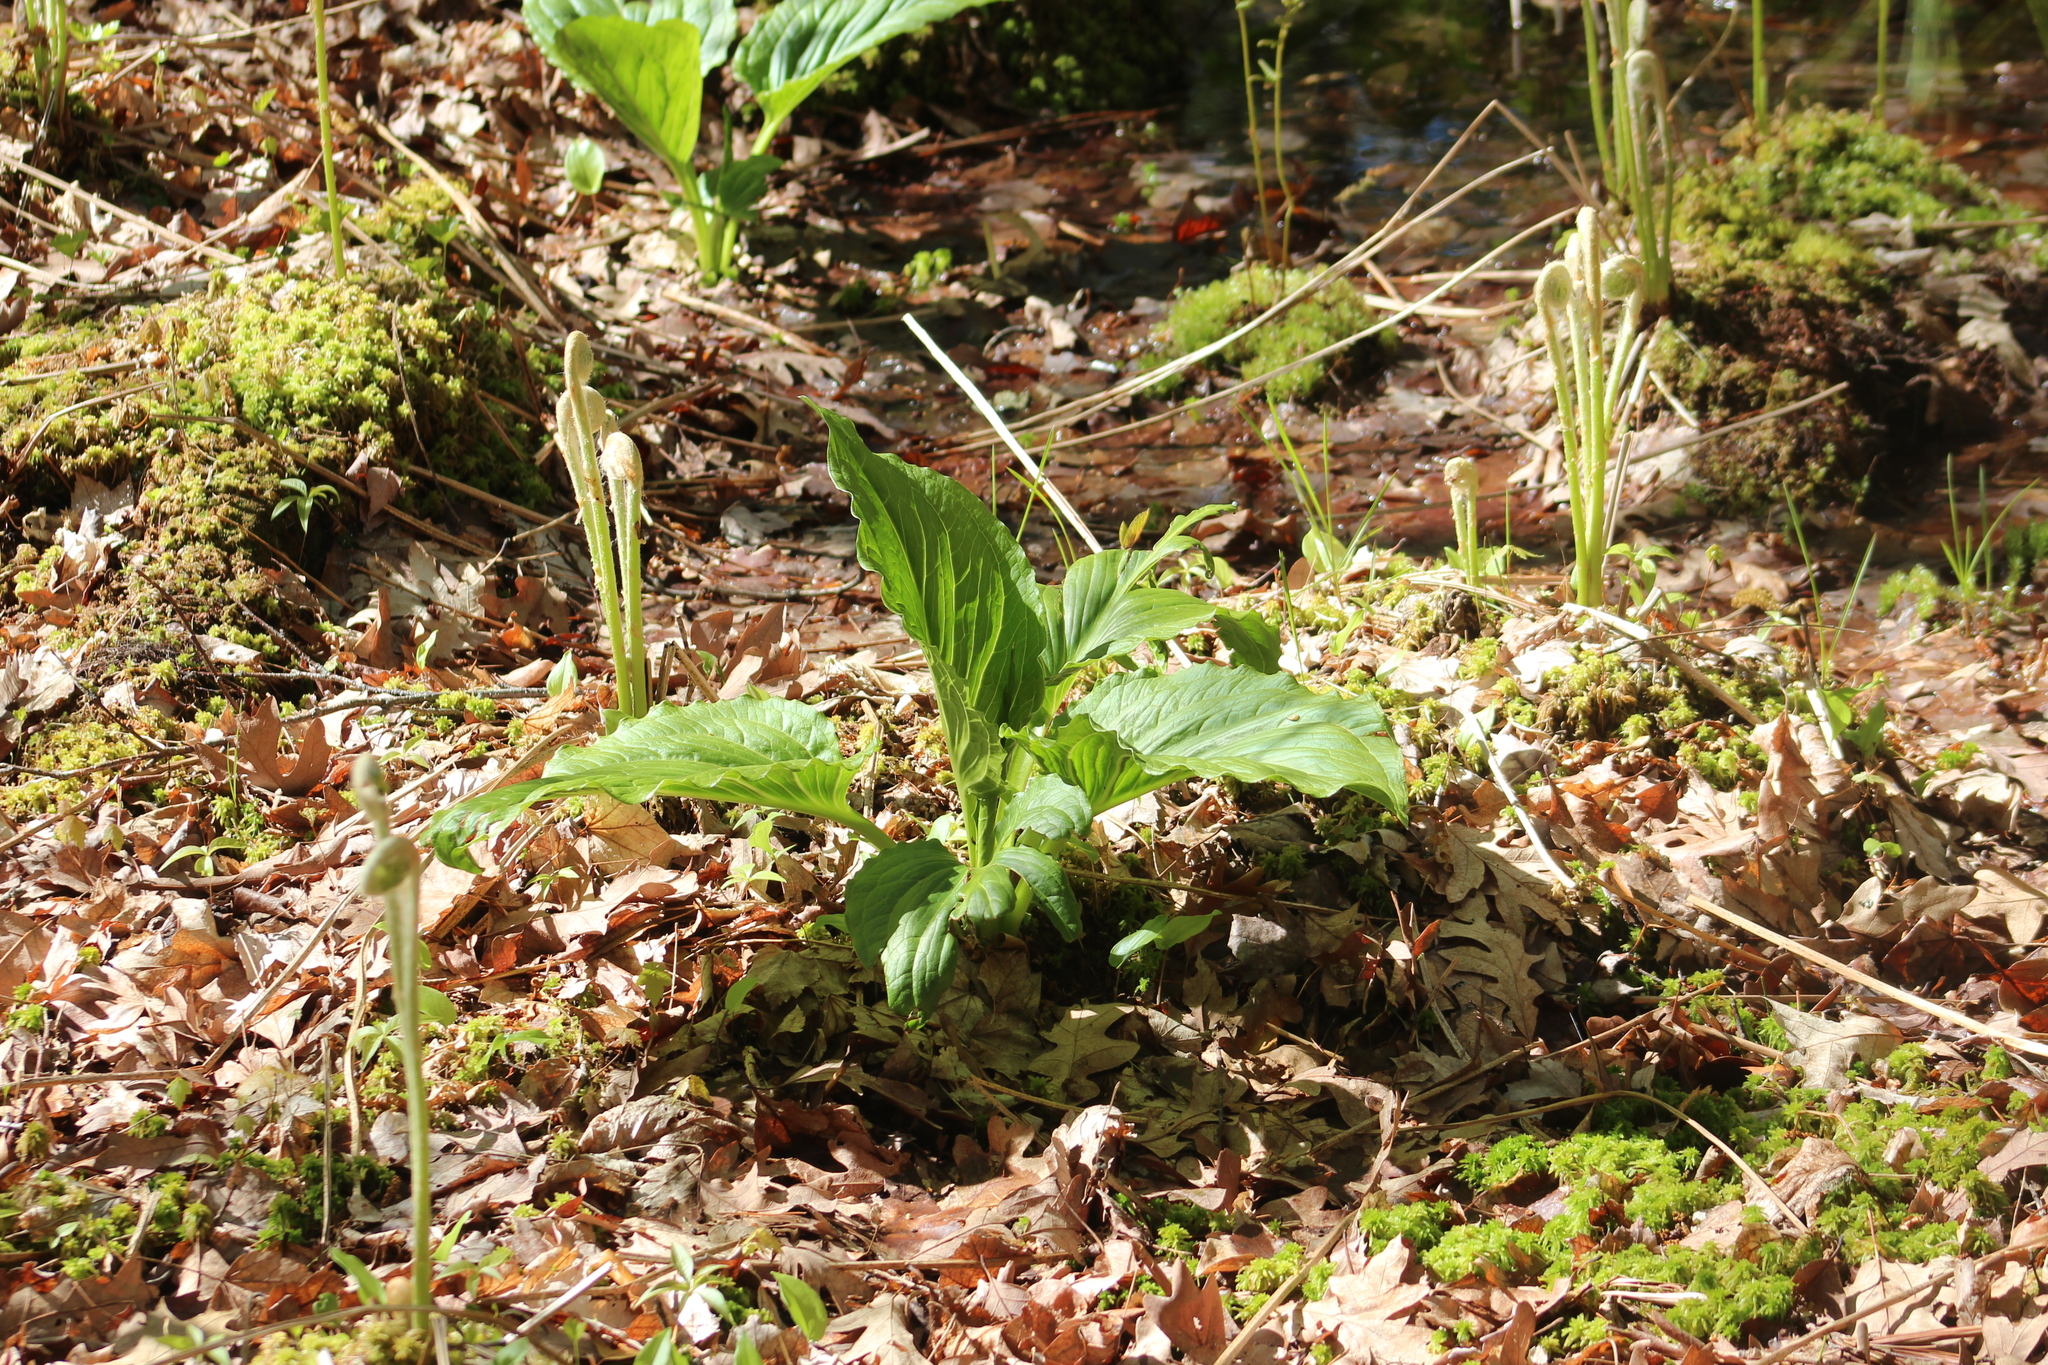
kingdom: Plantae
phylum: Tracheophyta
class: Liliopsida
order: Alismatales
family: Araceae
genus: Symplocarpus
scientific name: Symplocarpus foetidus
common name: Eastern skunk cabbage
